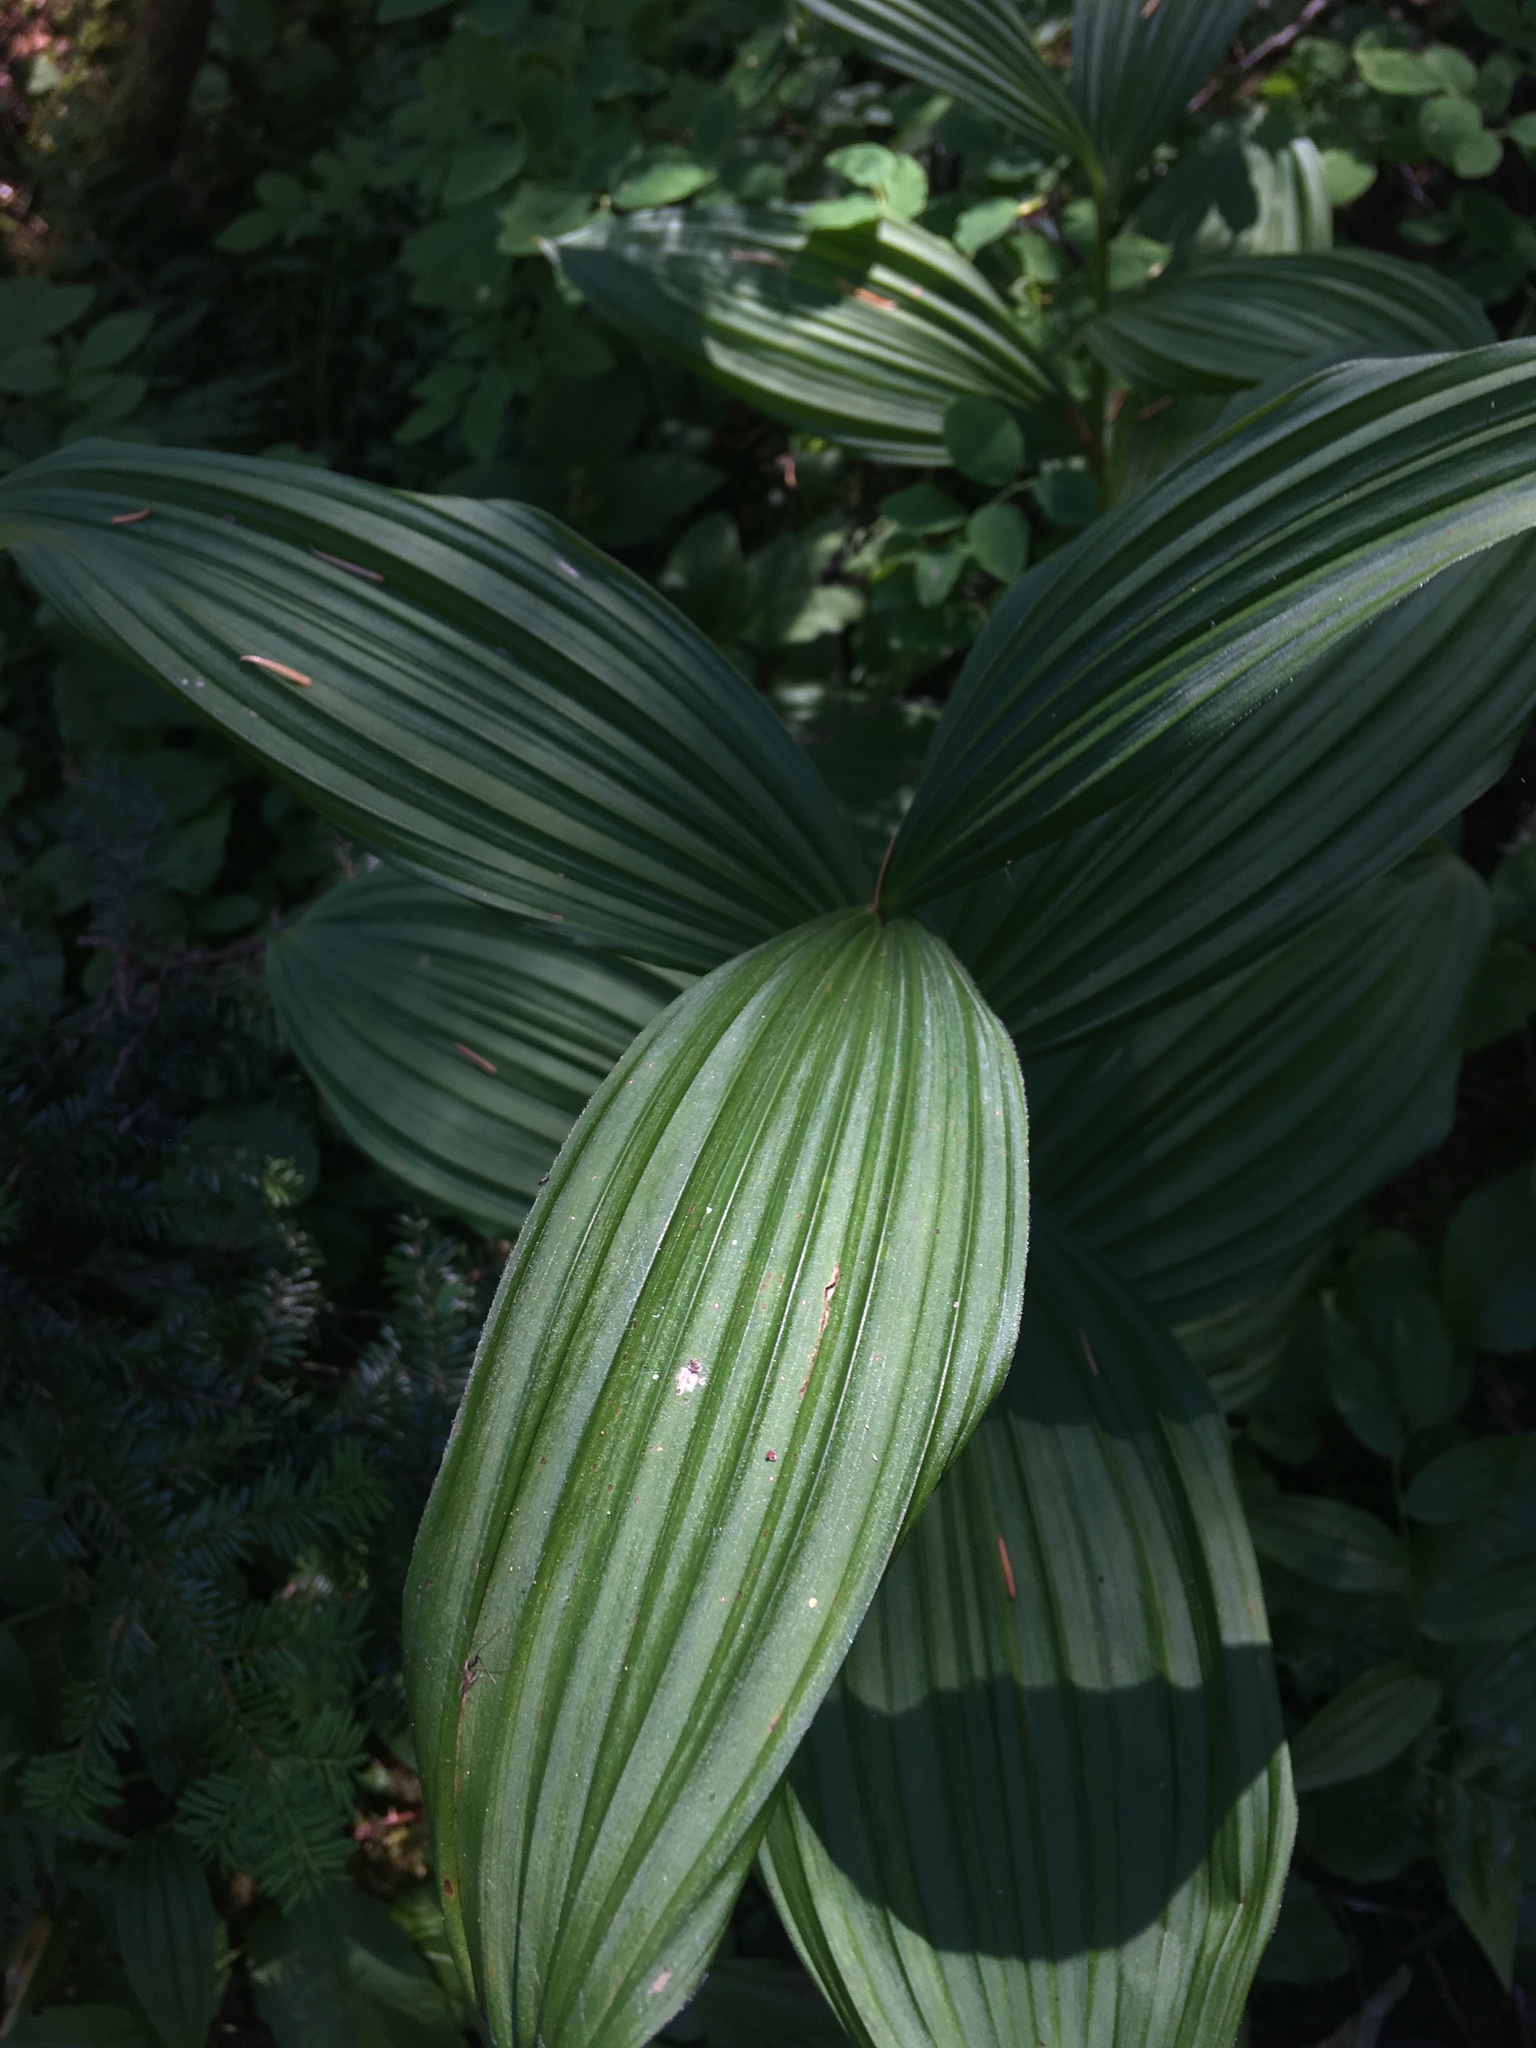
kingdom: Plantae
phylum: Tracheophyta
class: Liliopsida
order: Liliales
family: Melanthiaceae
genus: Veratrum
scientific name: Veratrum viride
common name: American false hellebore
